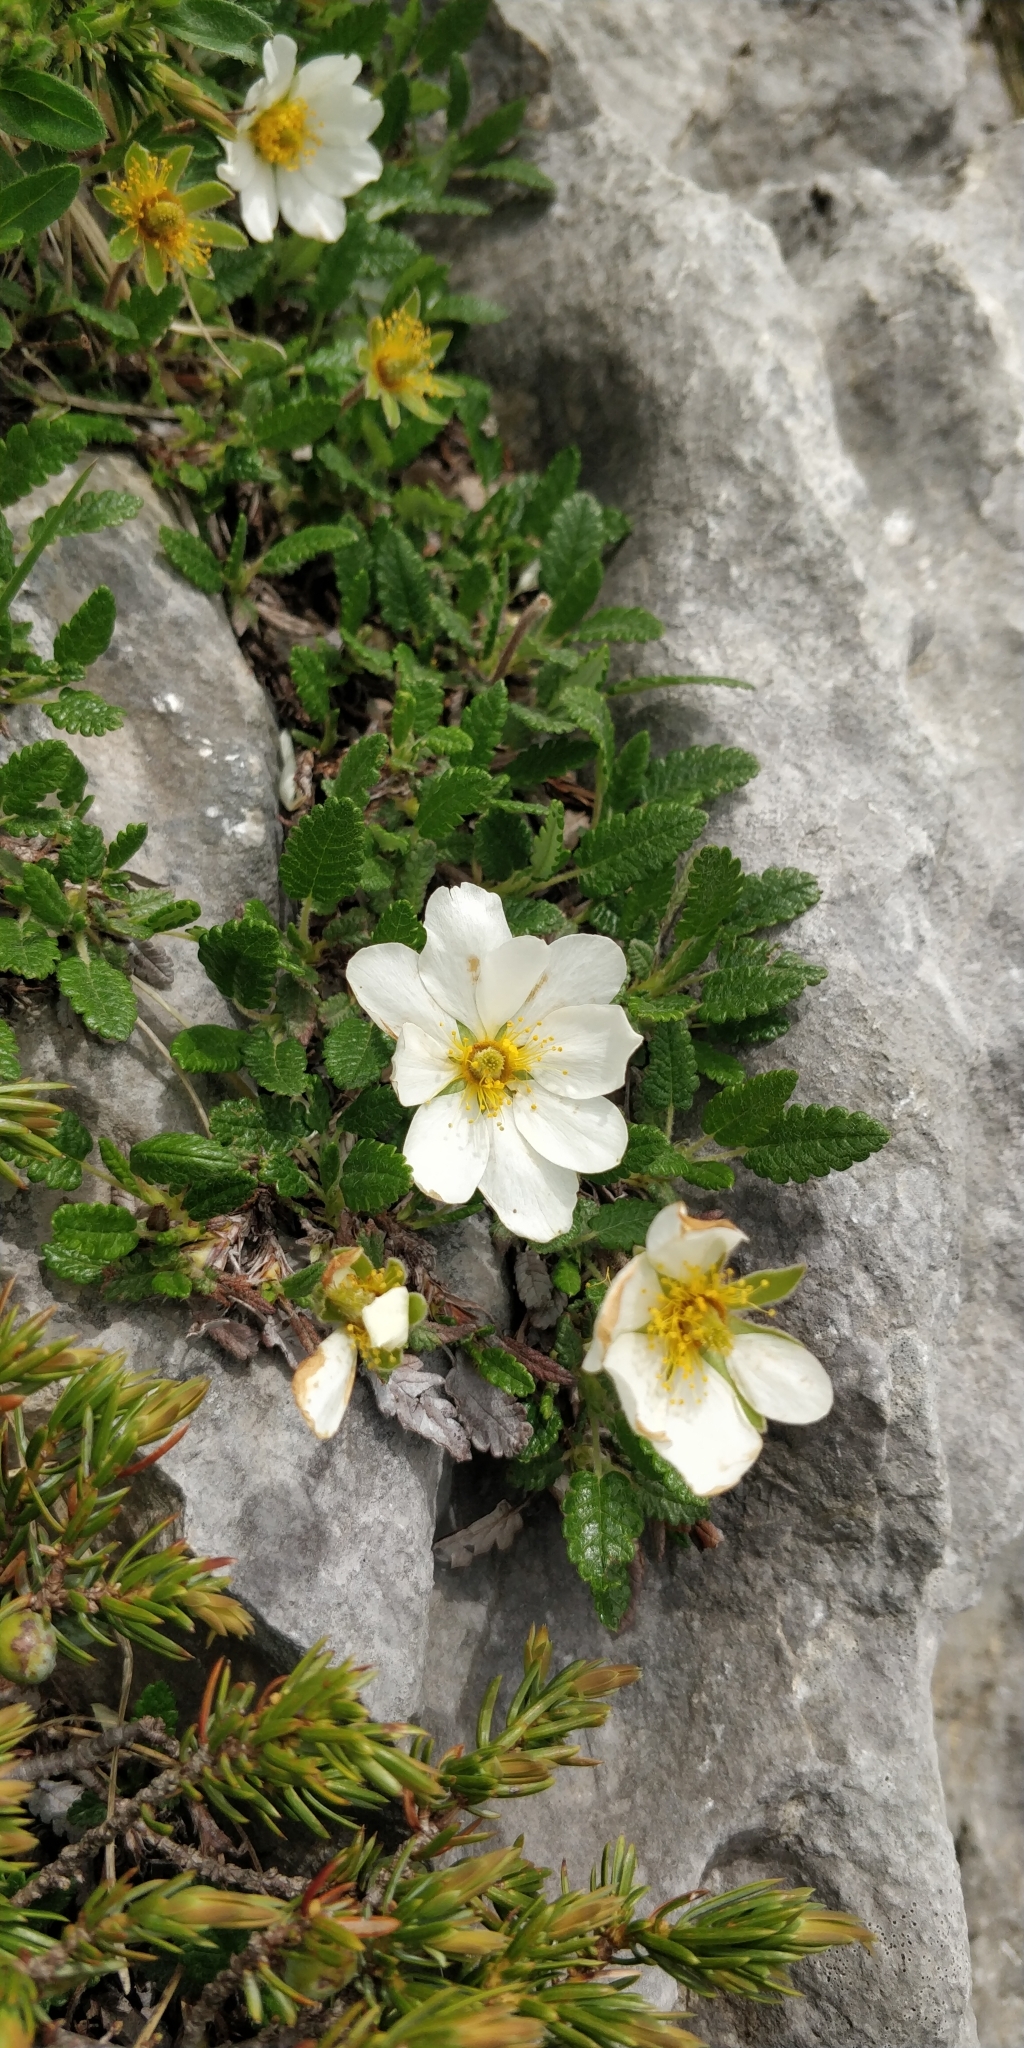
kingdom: Plantae
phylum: Tracheophyta
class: Magnoliopsida
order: Rosales
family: Rosaceae
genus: Dryas
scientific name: Dryas octopetala
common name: Eight-petal mountain-avens
